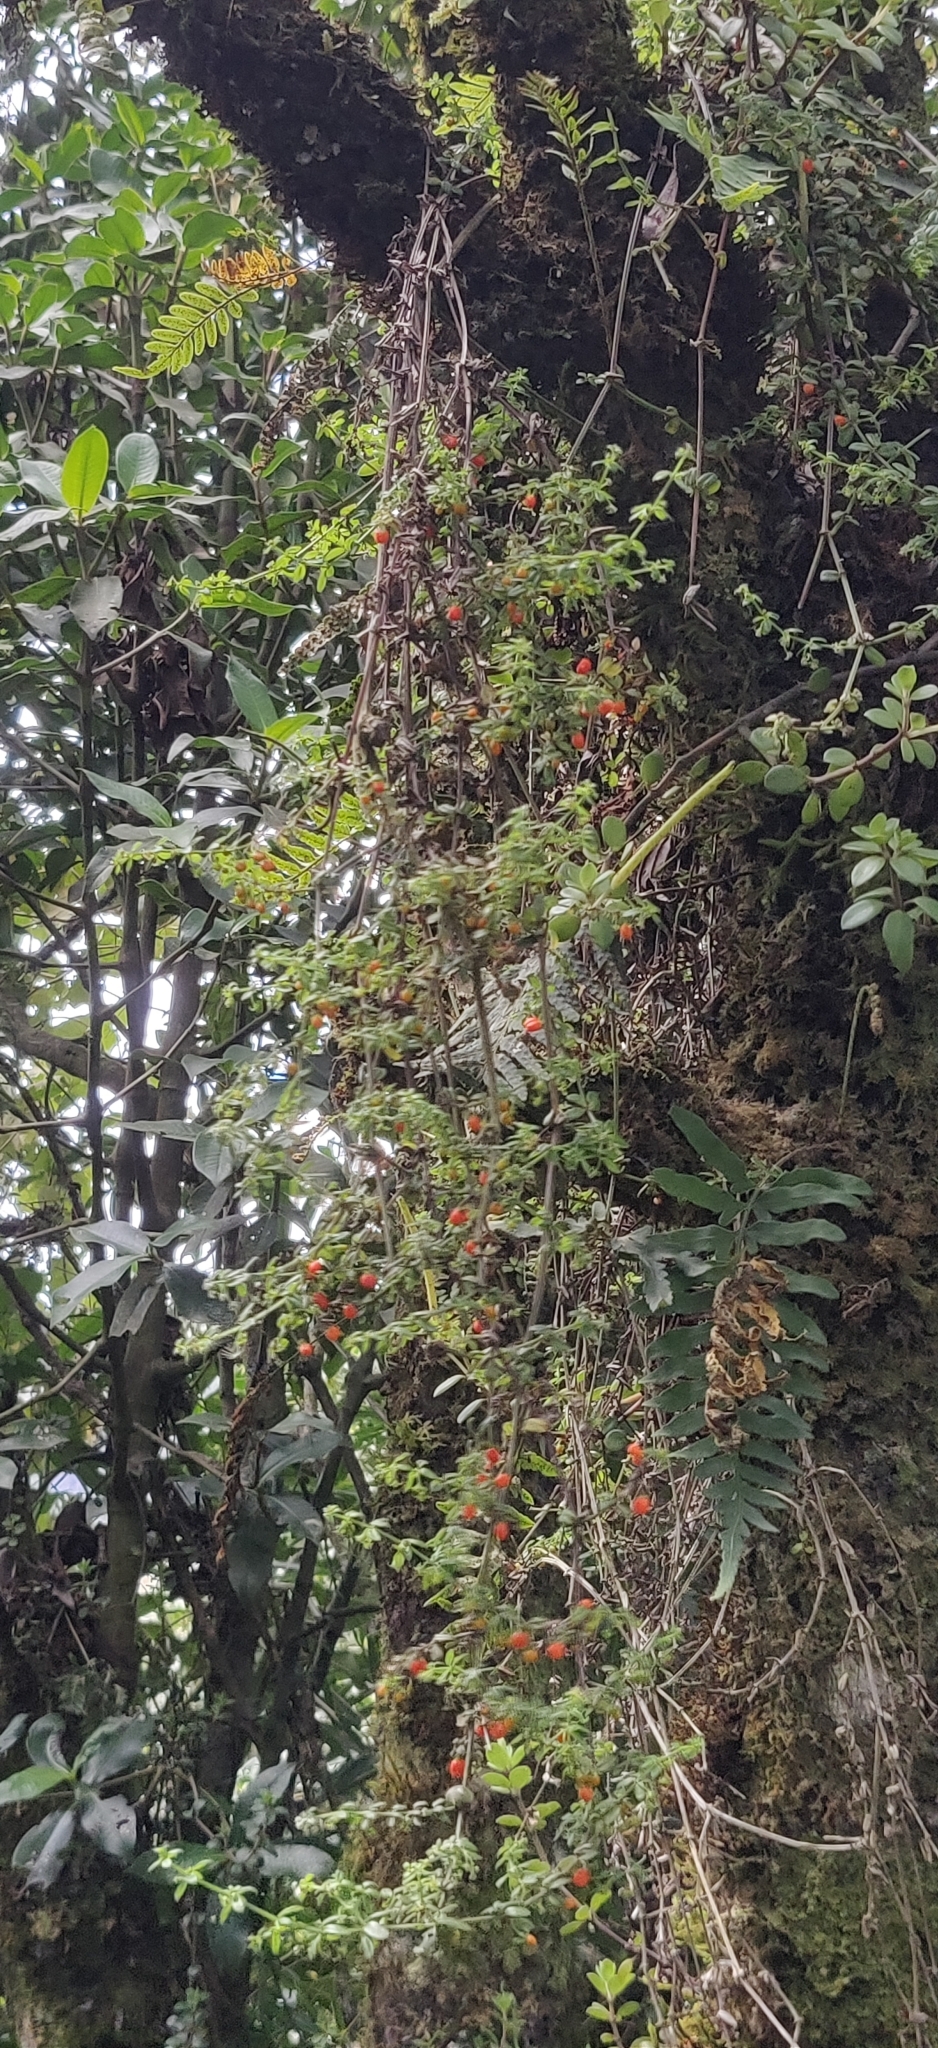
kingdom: Plantae
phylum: Tracheophyta
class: Magnoliopsida
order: Gentianales
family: Rubiaceae
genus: Galium
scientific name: Galium hypocarpium
